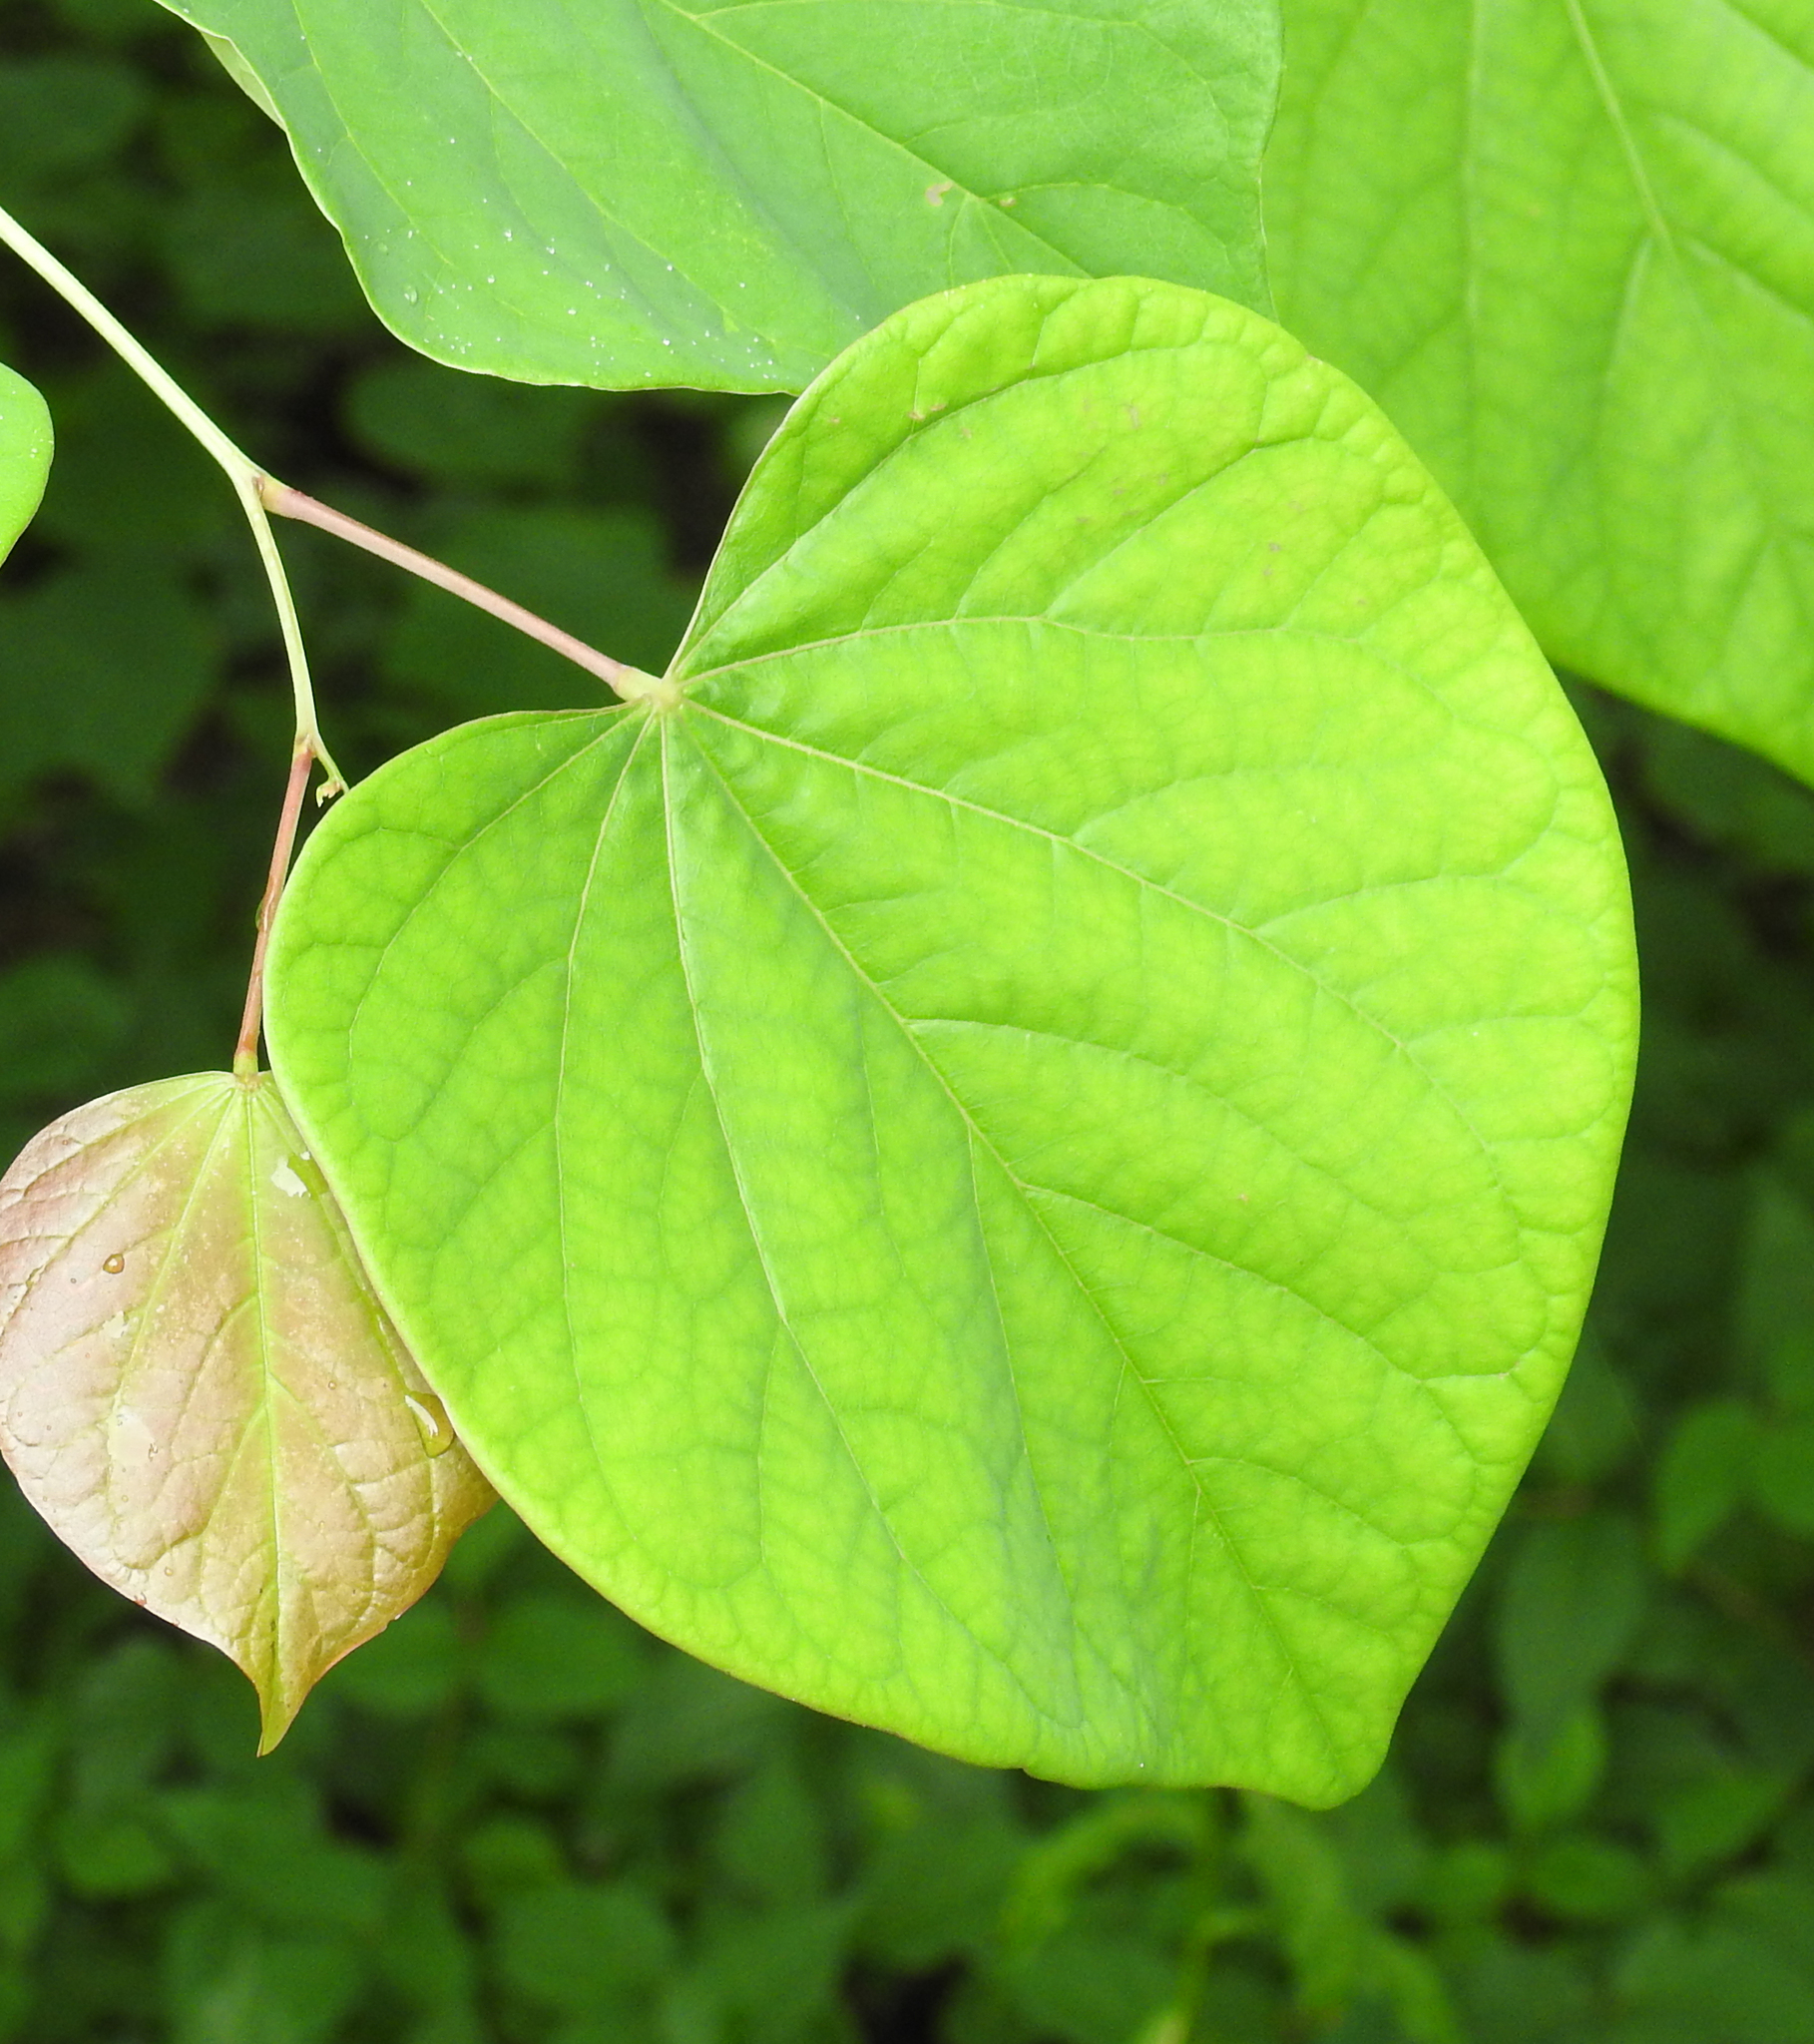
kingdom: Plantae
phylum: Tracheophyta
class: Magnoliopsida
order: Fabales
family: Fabaceae
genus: Cercis
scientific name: Cercis canadensis
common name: Eastern redbud
